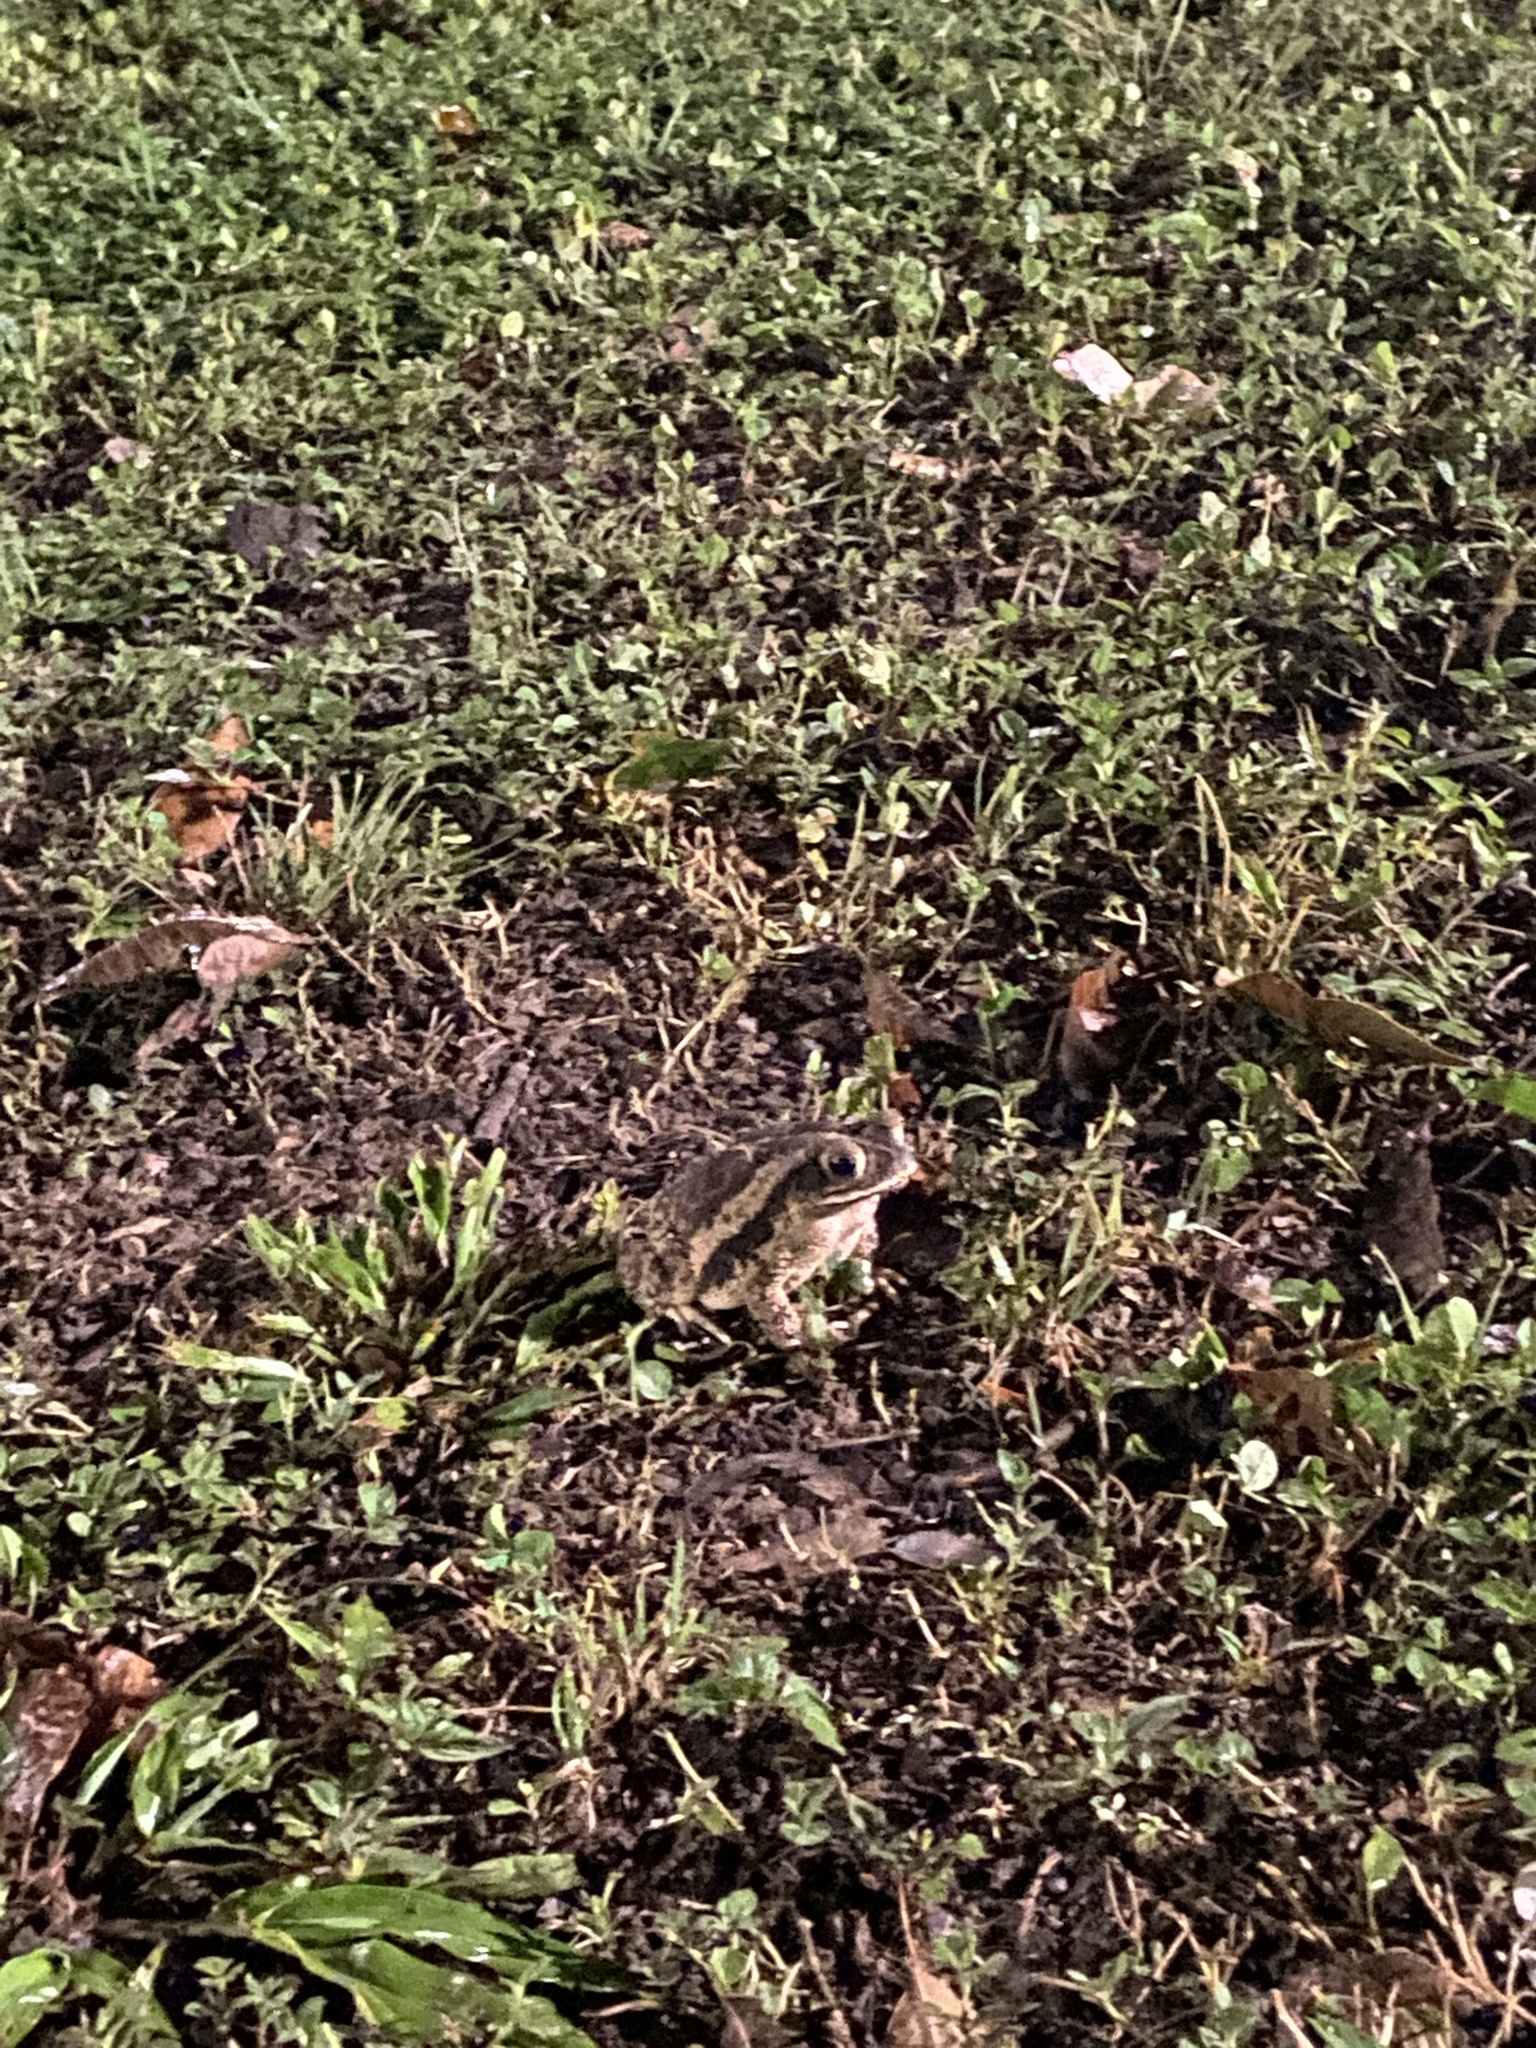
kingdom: Animalia
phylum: Chordata
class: Amphibia
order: Anura
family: Bufonidae
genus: Incilius
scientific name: Incilius nebulifer
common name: Gulf coast toad
